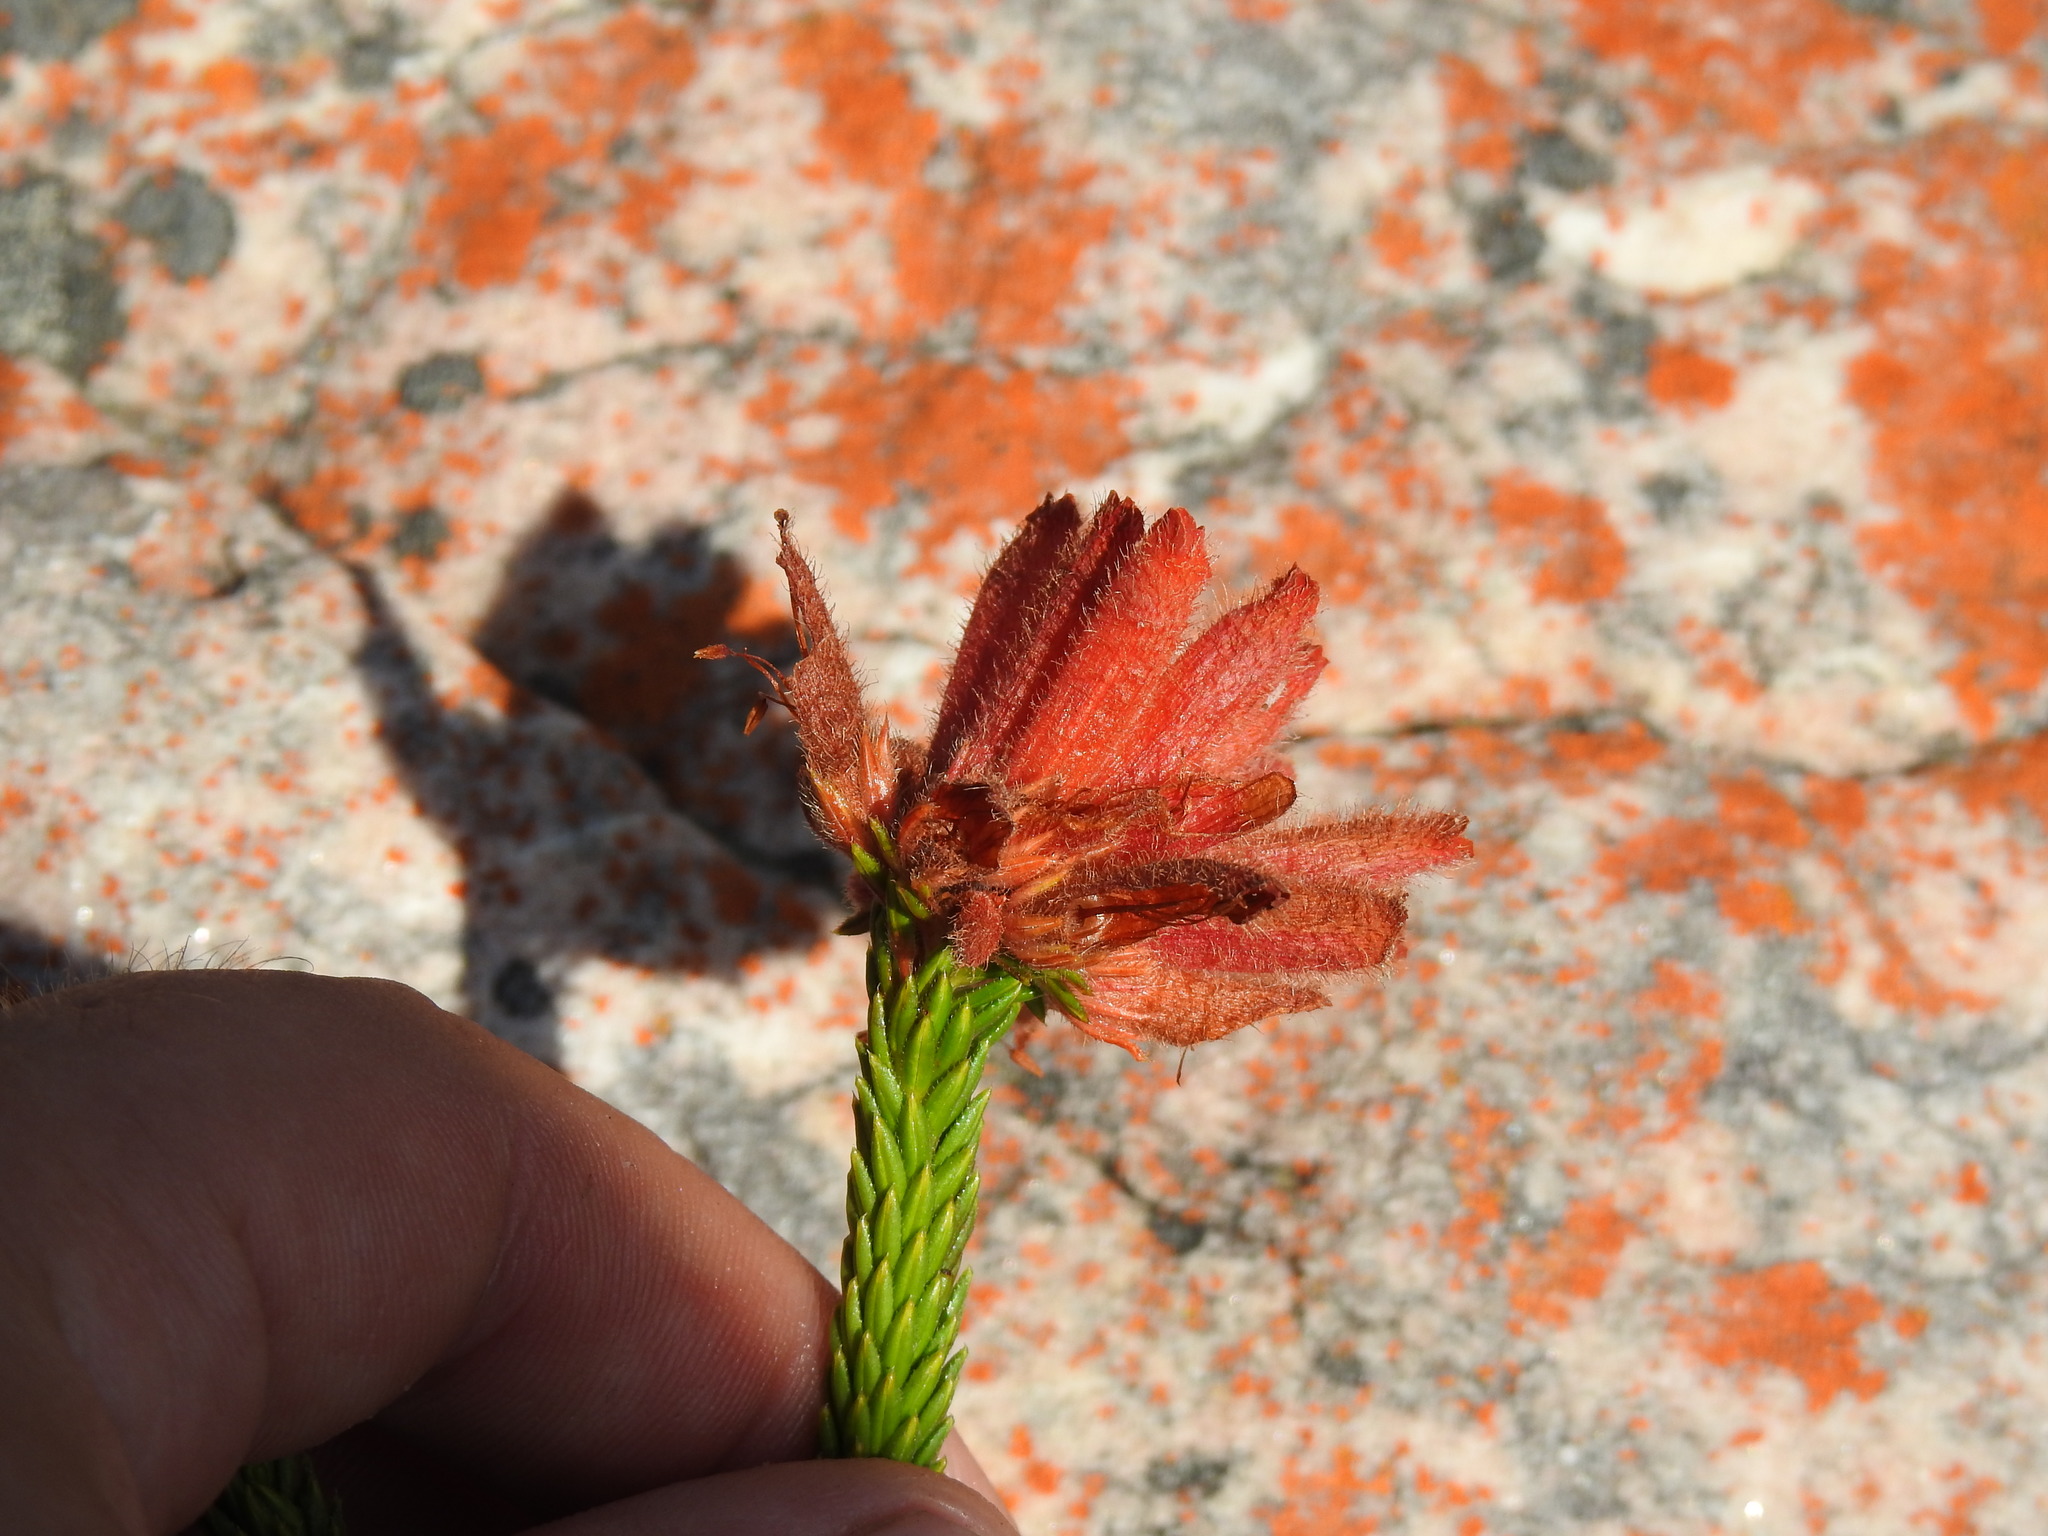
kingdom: Plantae
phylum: Tracheophyta
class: Magnoliopsida
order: Ericales
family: Ericaceae
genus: Erica
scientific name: Erica cerinthoides
